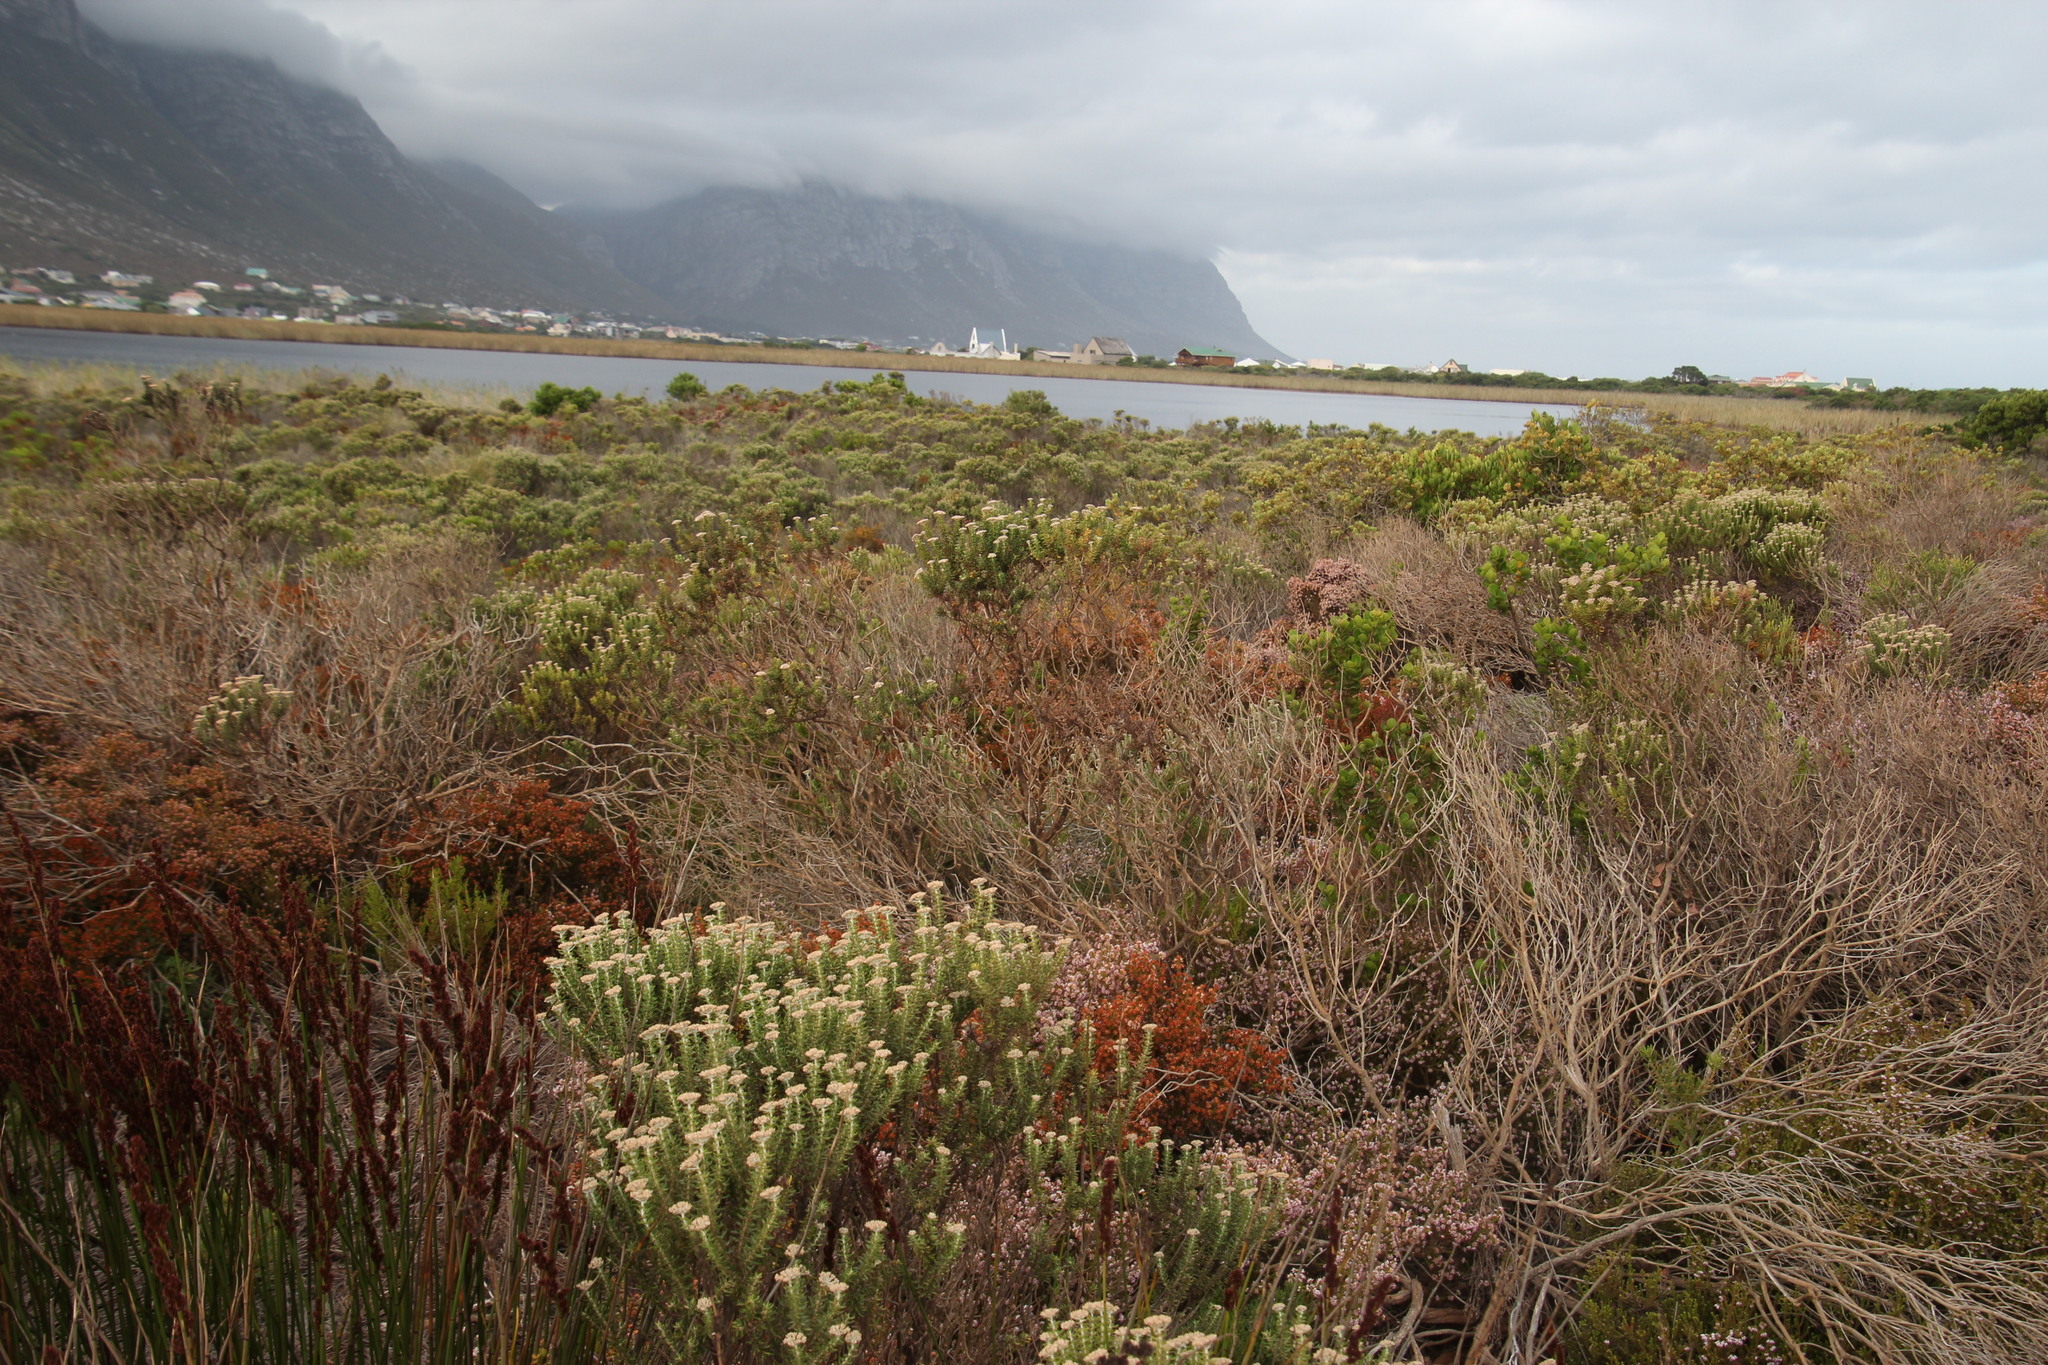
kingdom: Plantae
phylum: Tracheophyta
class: Magnoliopsida
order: Asterales
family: Asteraceae
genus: Metalasia
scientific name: Metalasia muricata
